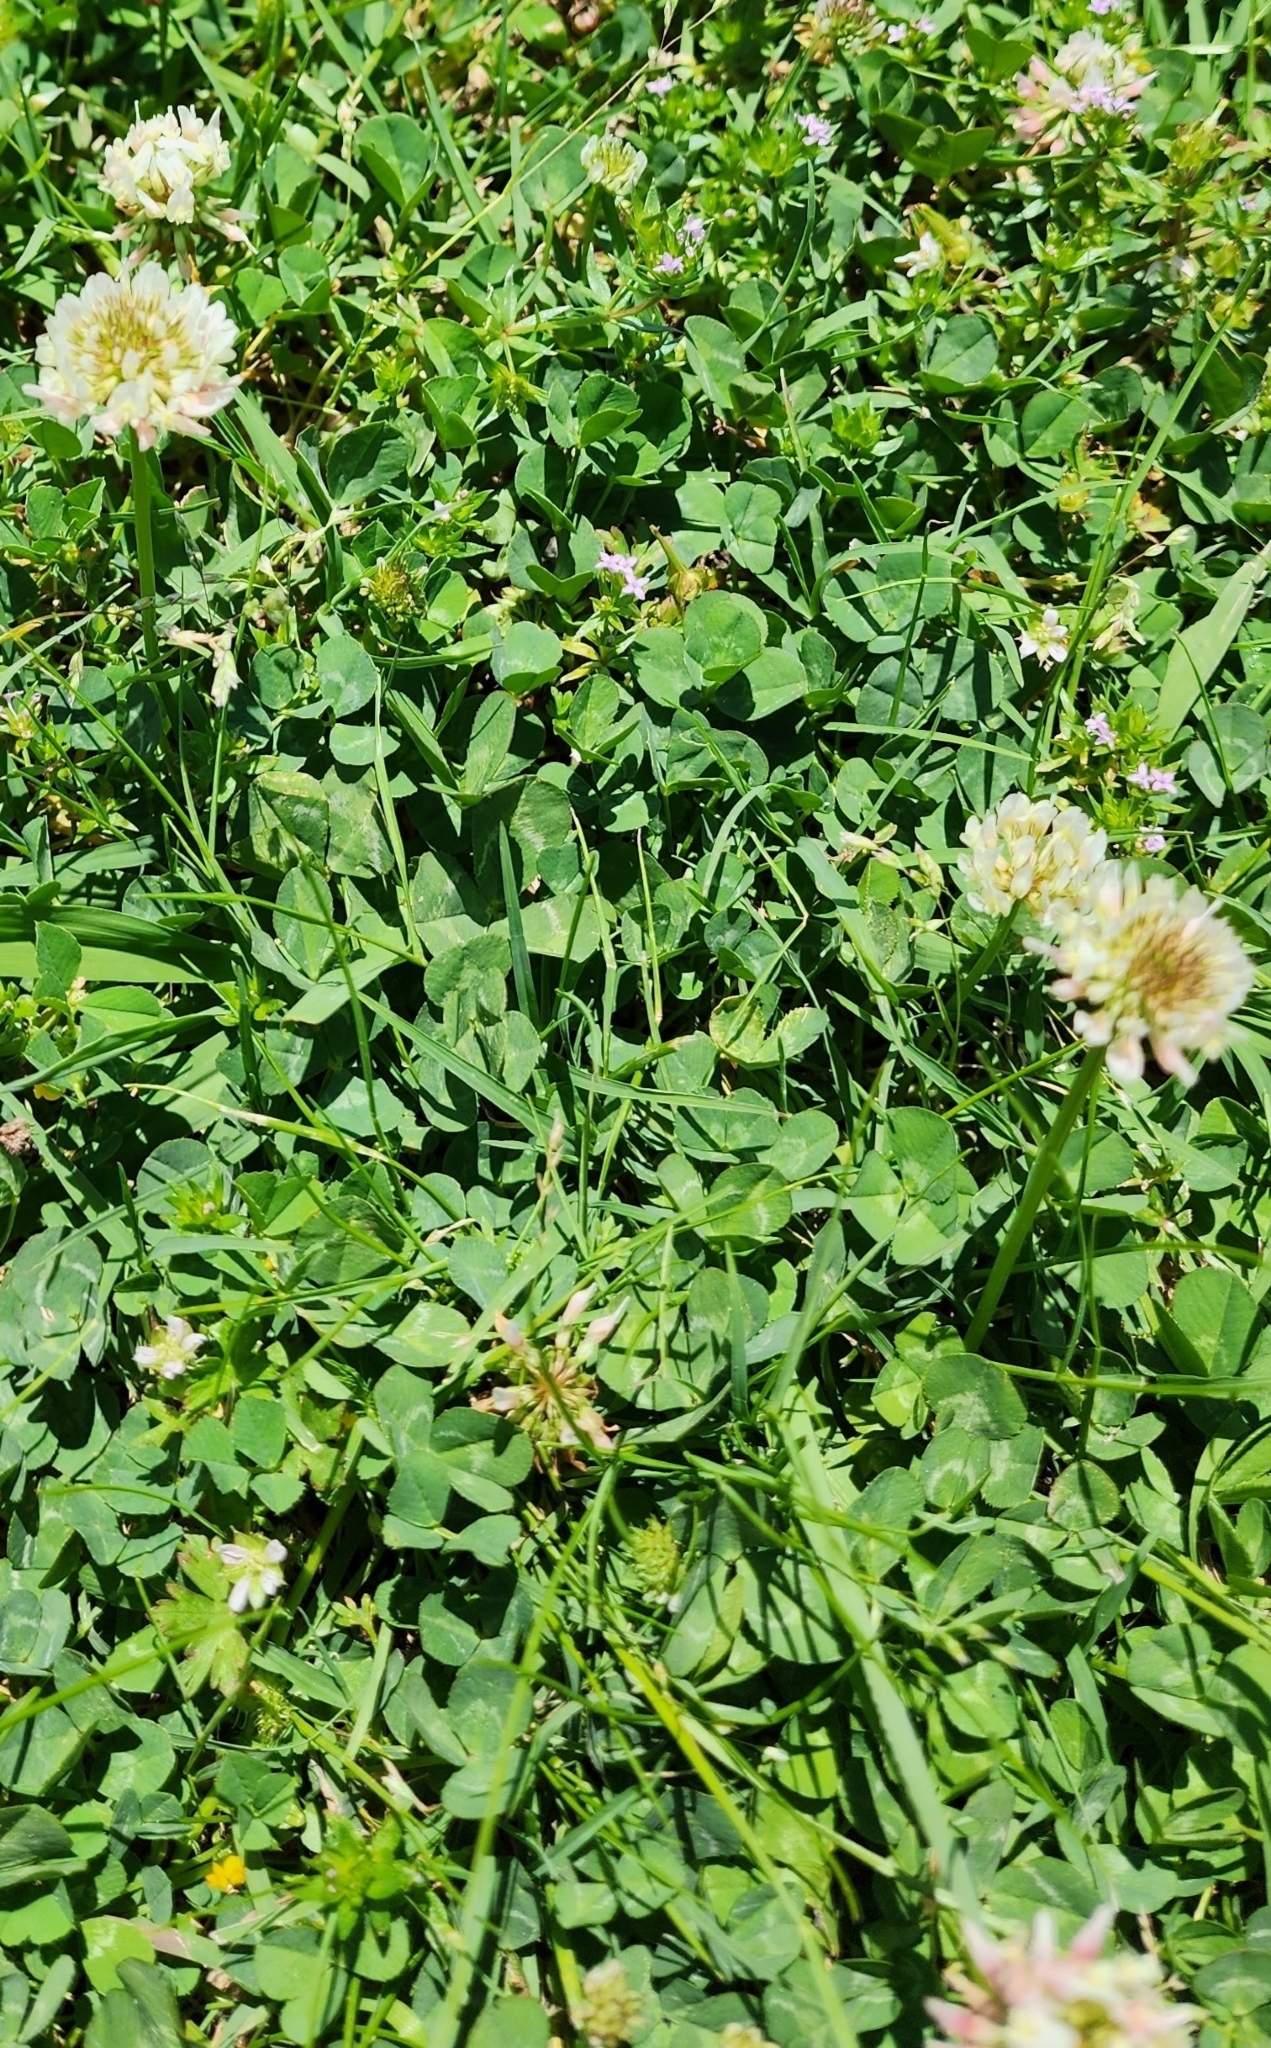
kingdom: Plantae
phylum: Tracheophyta
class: Magnoliopsida
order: Fabales
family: Fabaceae
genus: Trifolium
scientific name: Trifolium repens
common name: White clover
